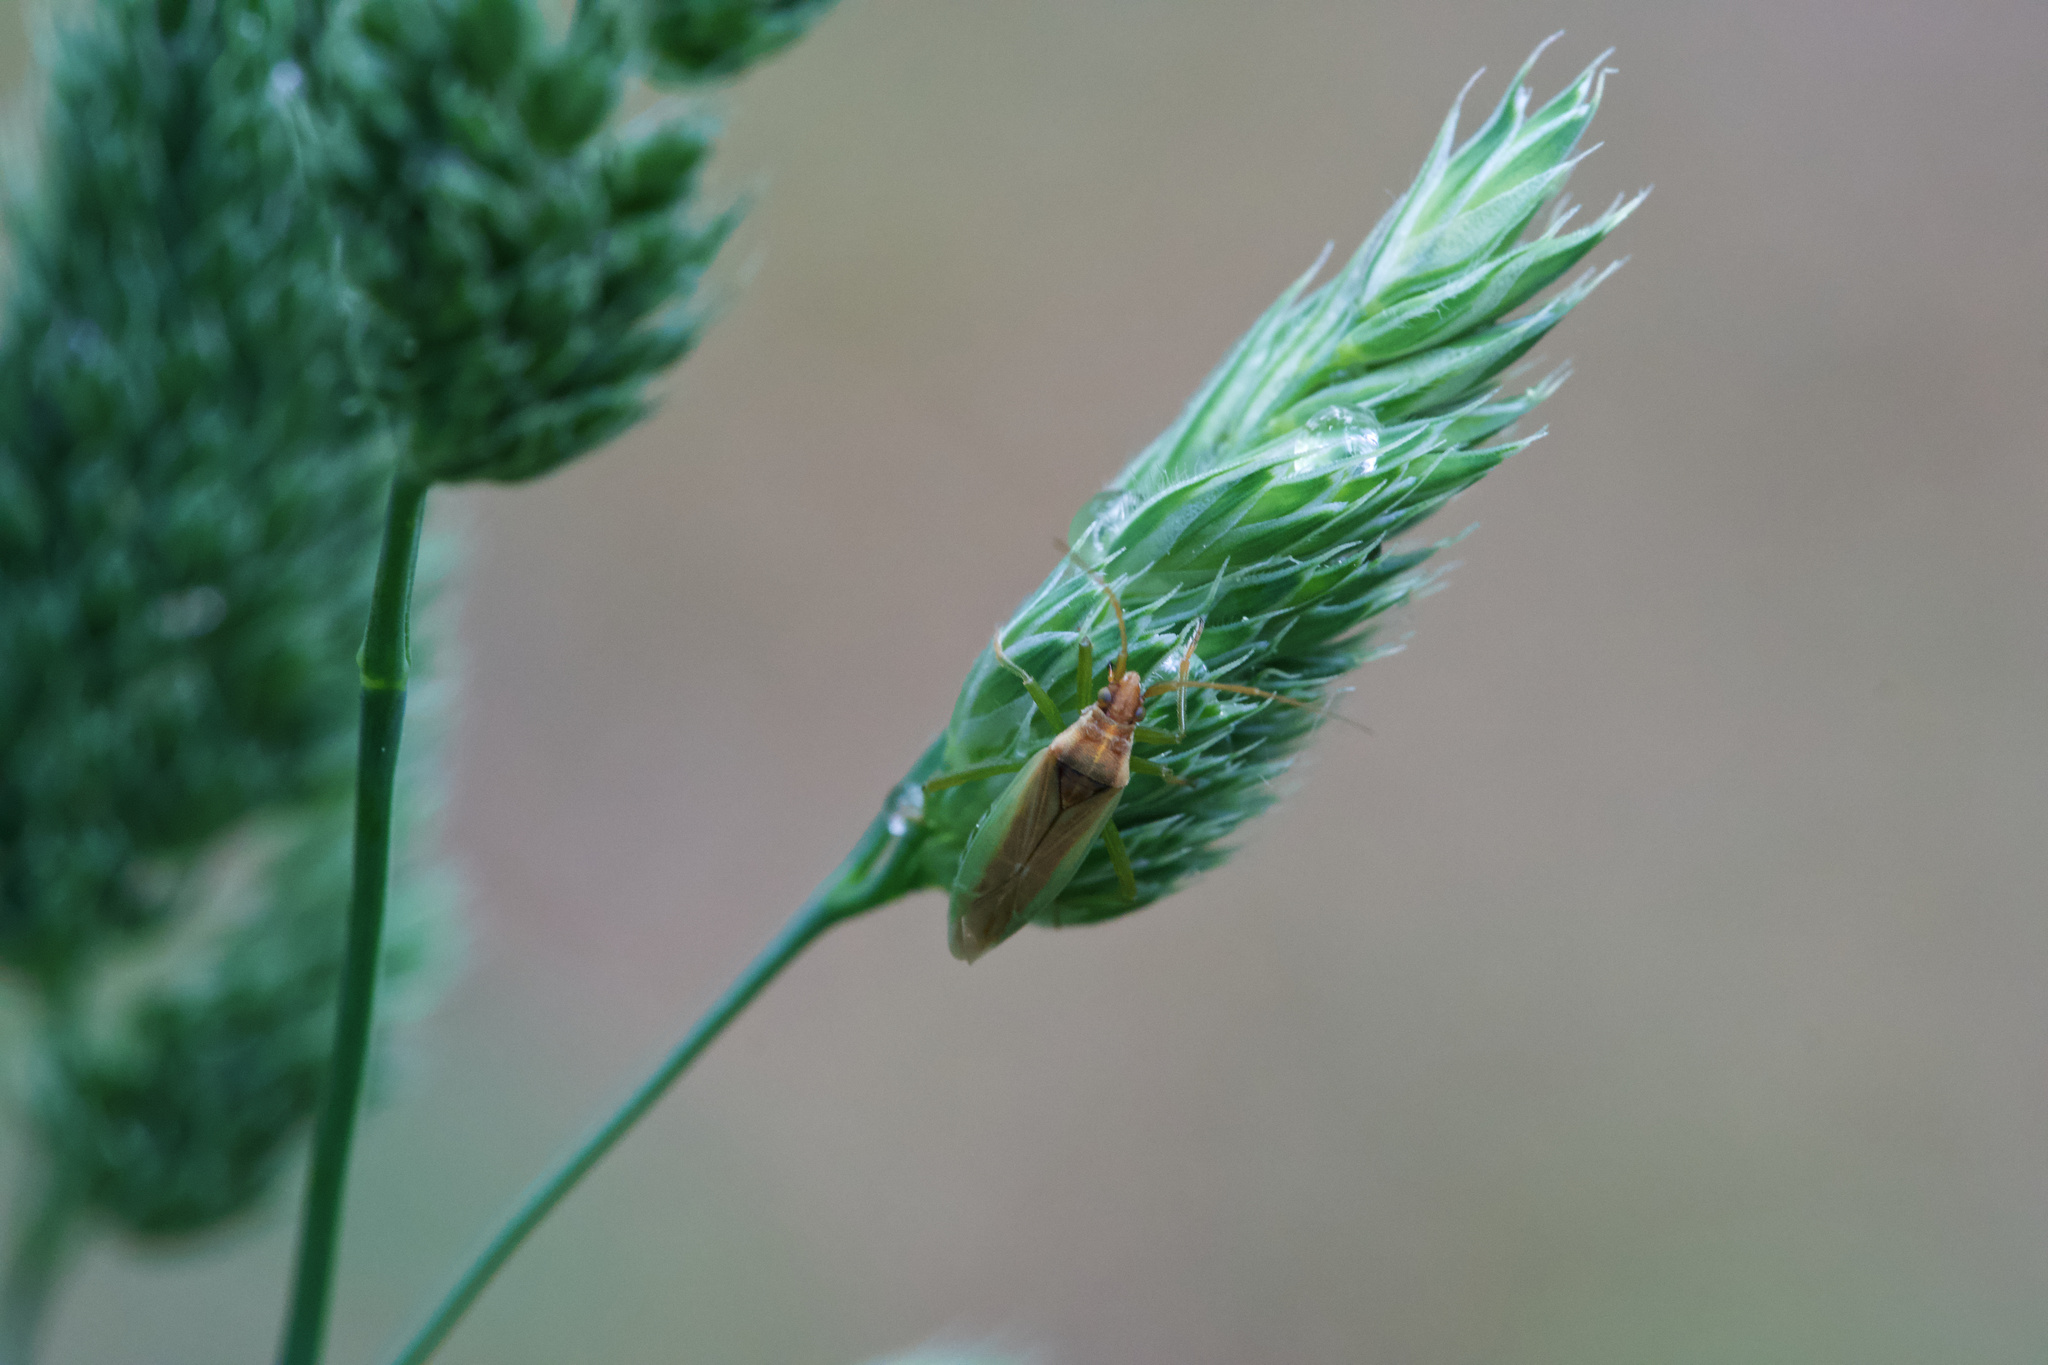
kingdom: Animalia
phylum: Arthropoda
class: Insecta
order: Hemiptera
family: Miridae
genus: Stenodema
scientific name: Stenodema holsata
